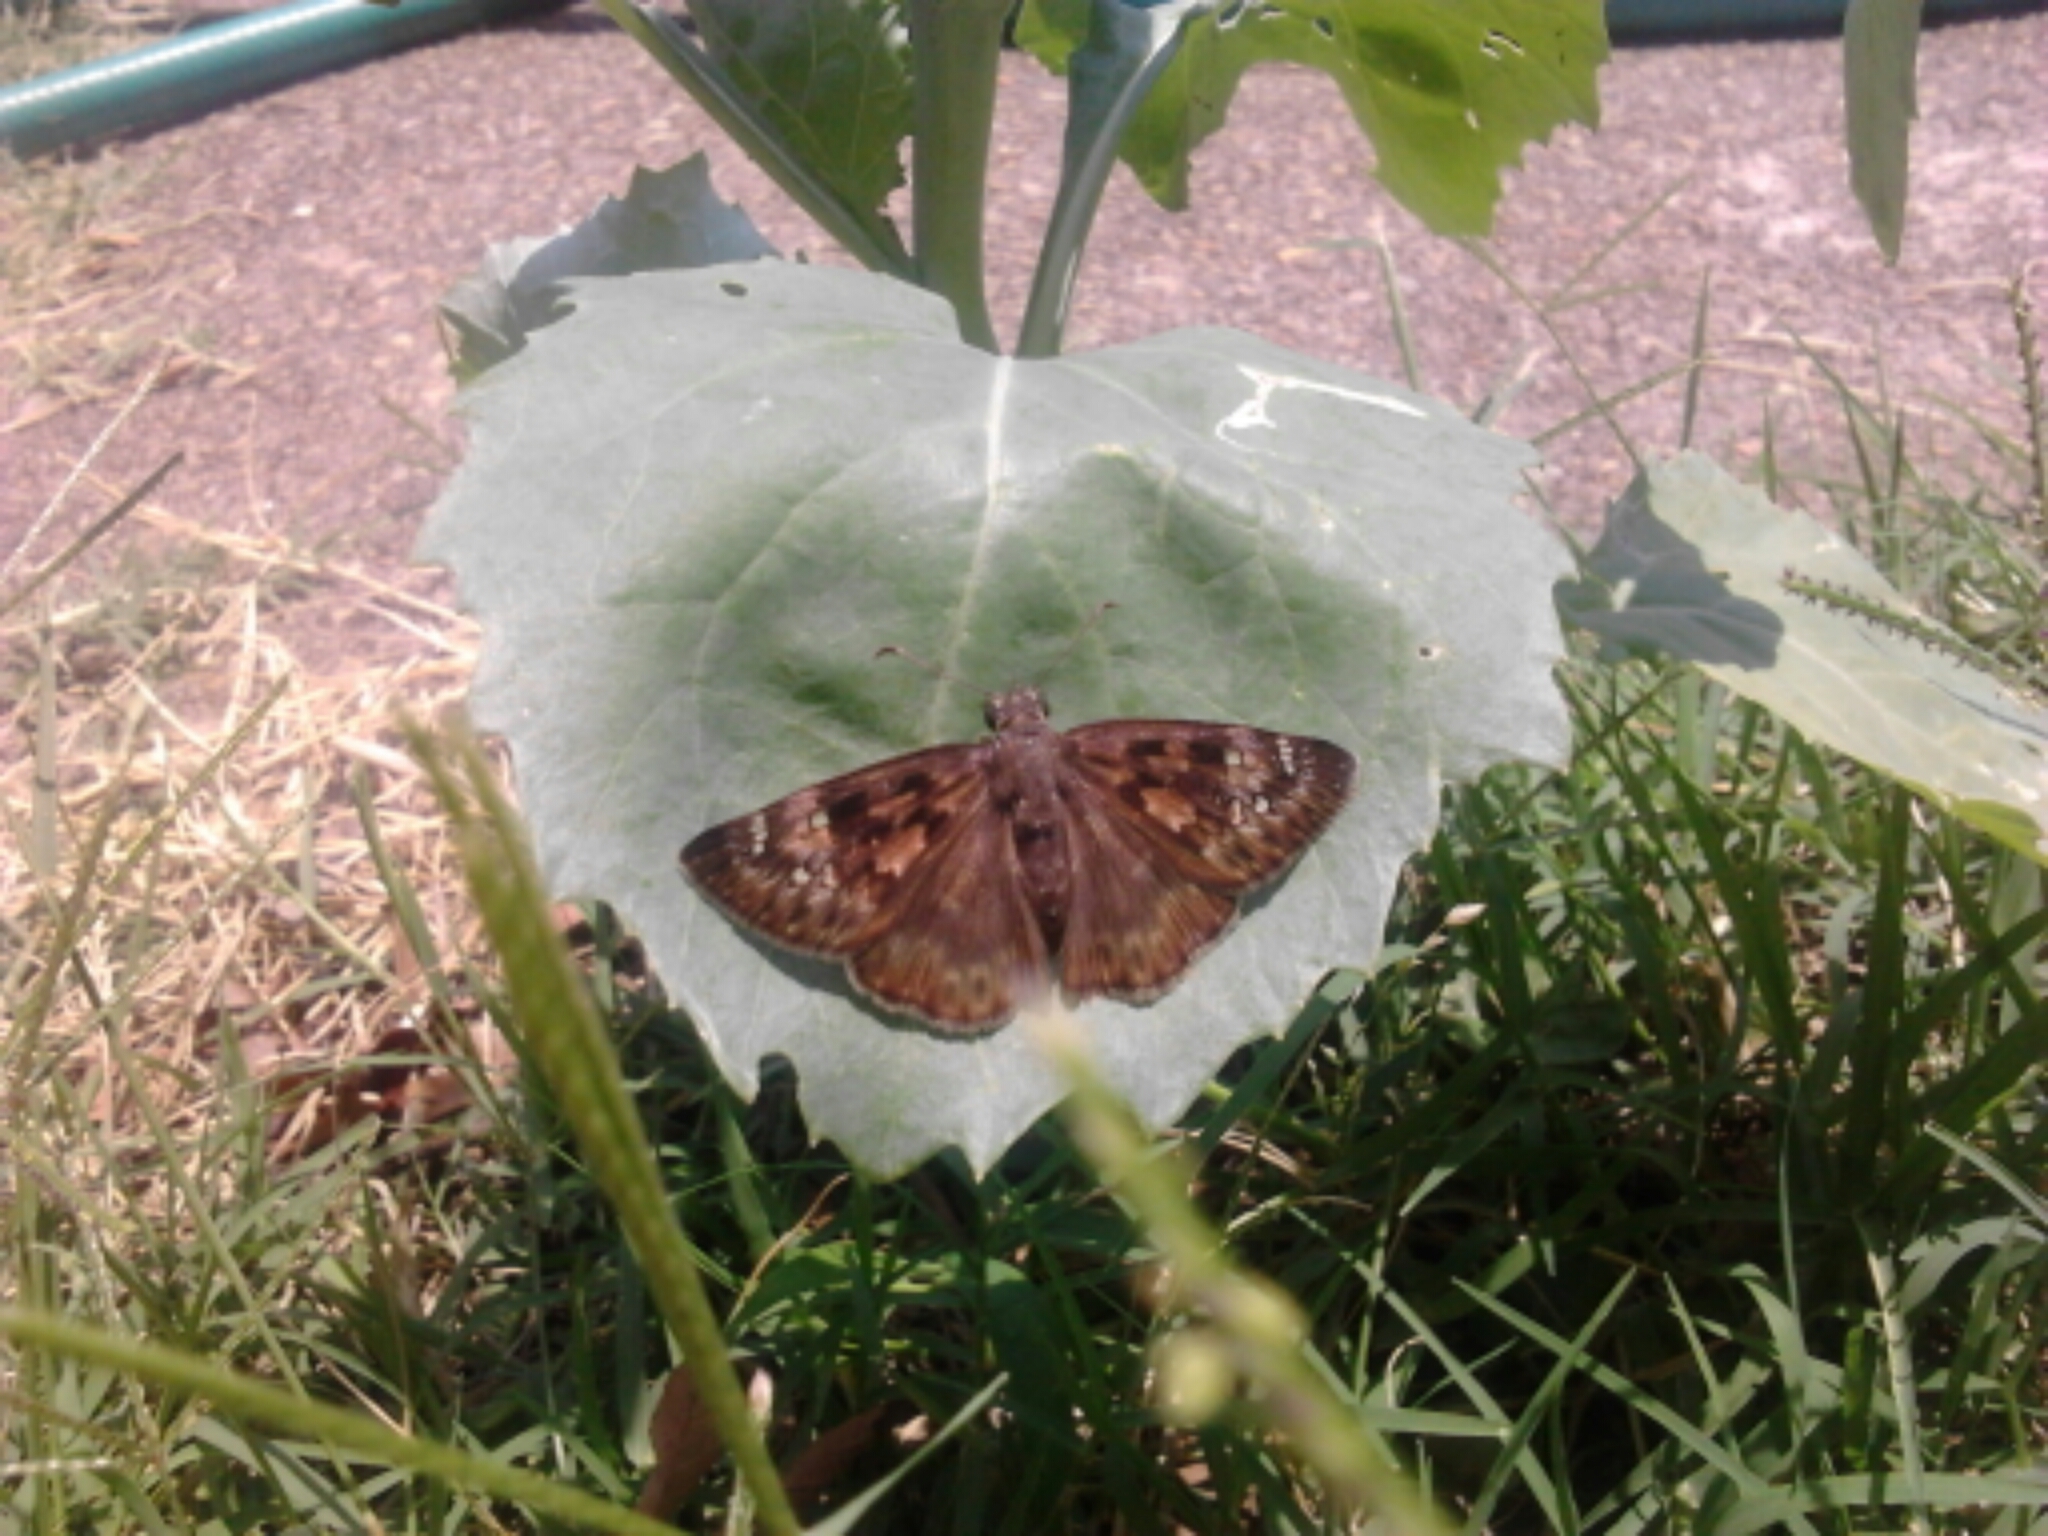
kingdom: Animalia
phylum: Arthropoda
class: Insecta
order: Lepidoptera
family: Hesperiidae
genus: Erynnis
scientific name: Erynnis horatius
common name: Horace's duskywing
